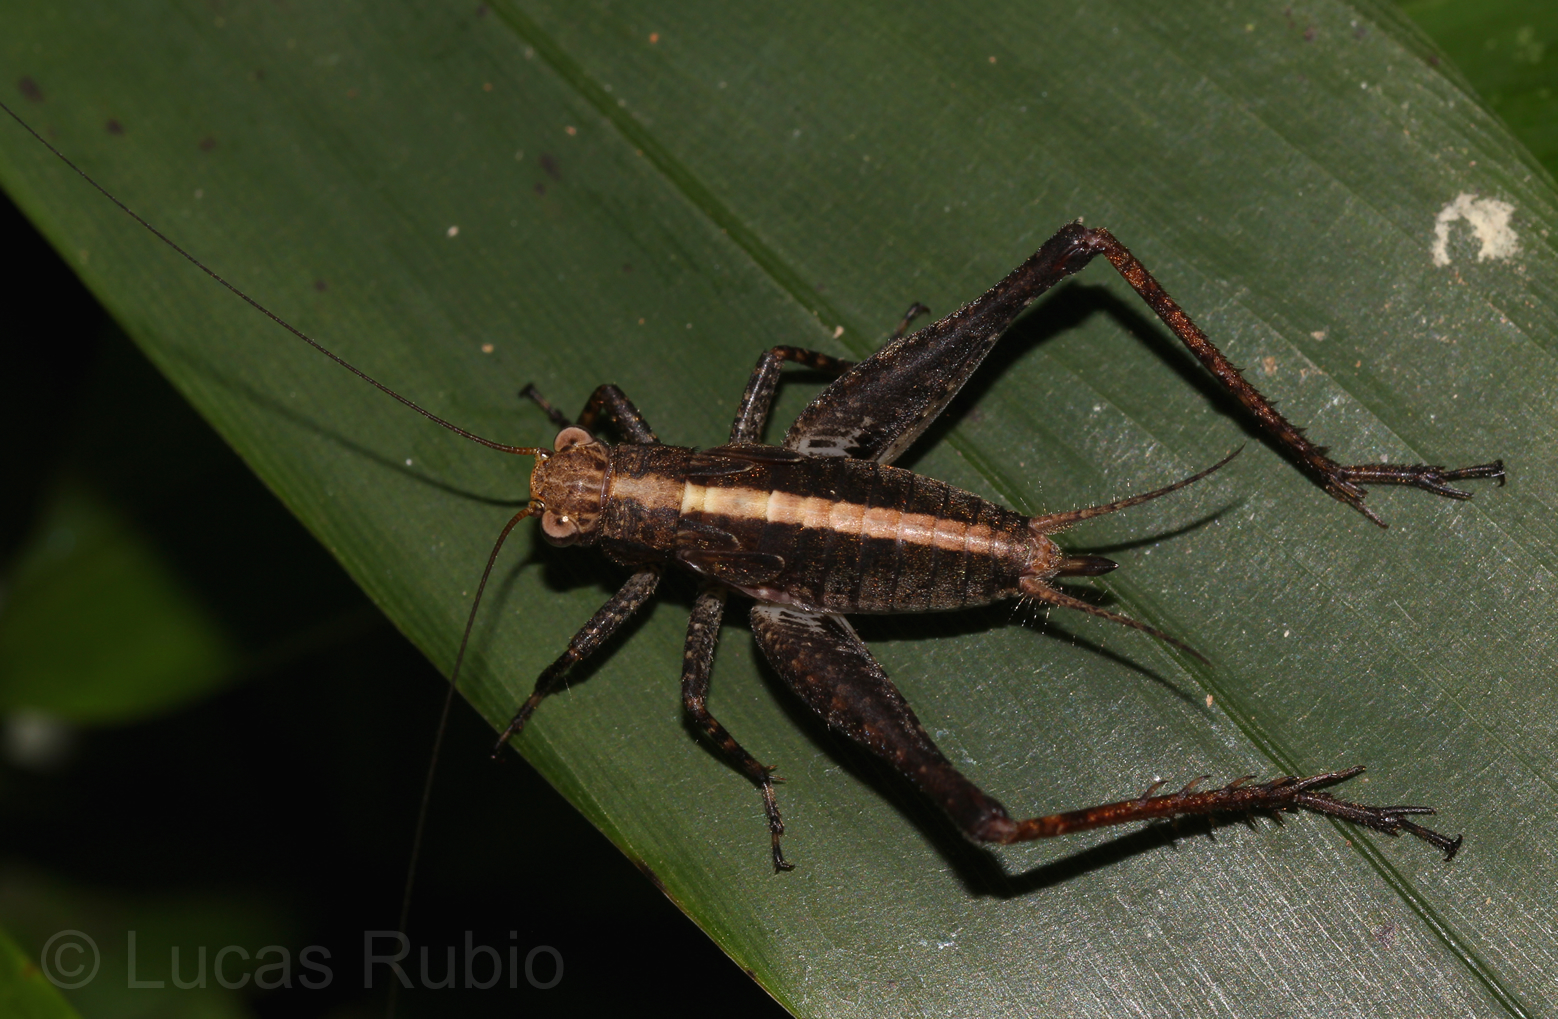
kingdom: Animalia
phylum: Arthropoda
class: Insecta
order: Orthoptera
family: Gryllidae
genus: Eneoptera
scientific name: Eneoptera surinamensis
